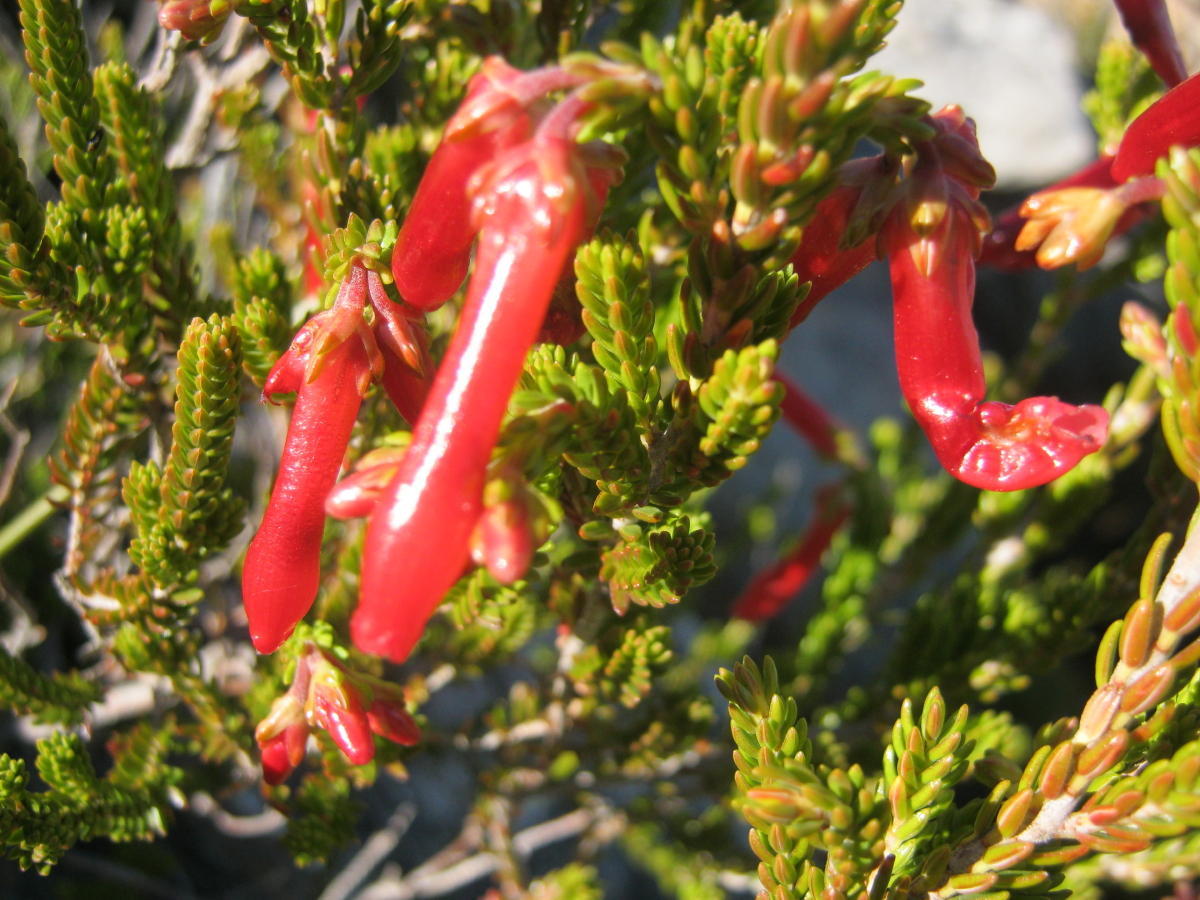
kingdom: Plantae
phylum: Tracheophyta
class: Magnoliopsida
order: Ericales
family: Ericaceae
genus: Erica
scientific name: Erica diaphana
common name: Heath
